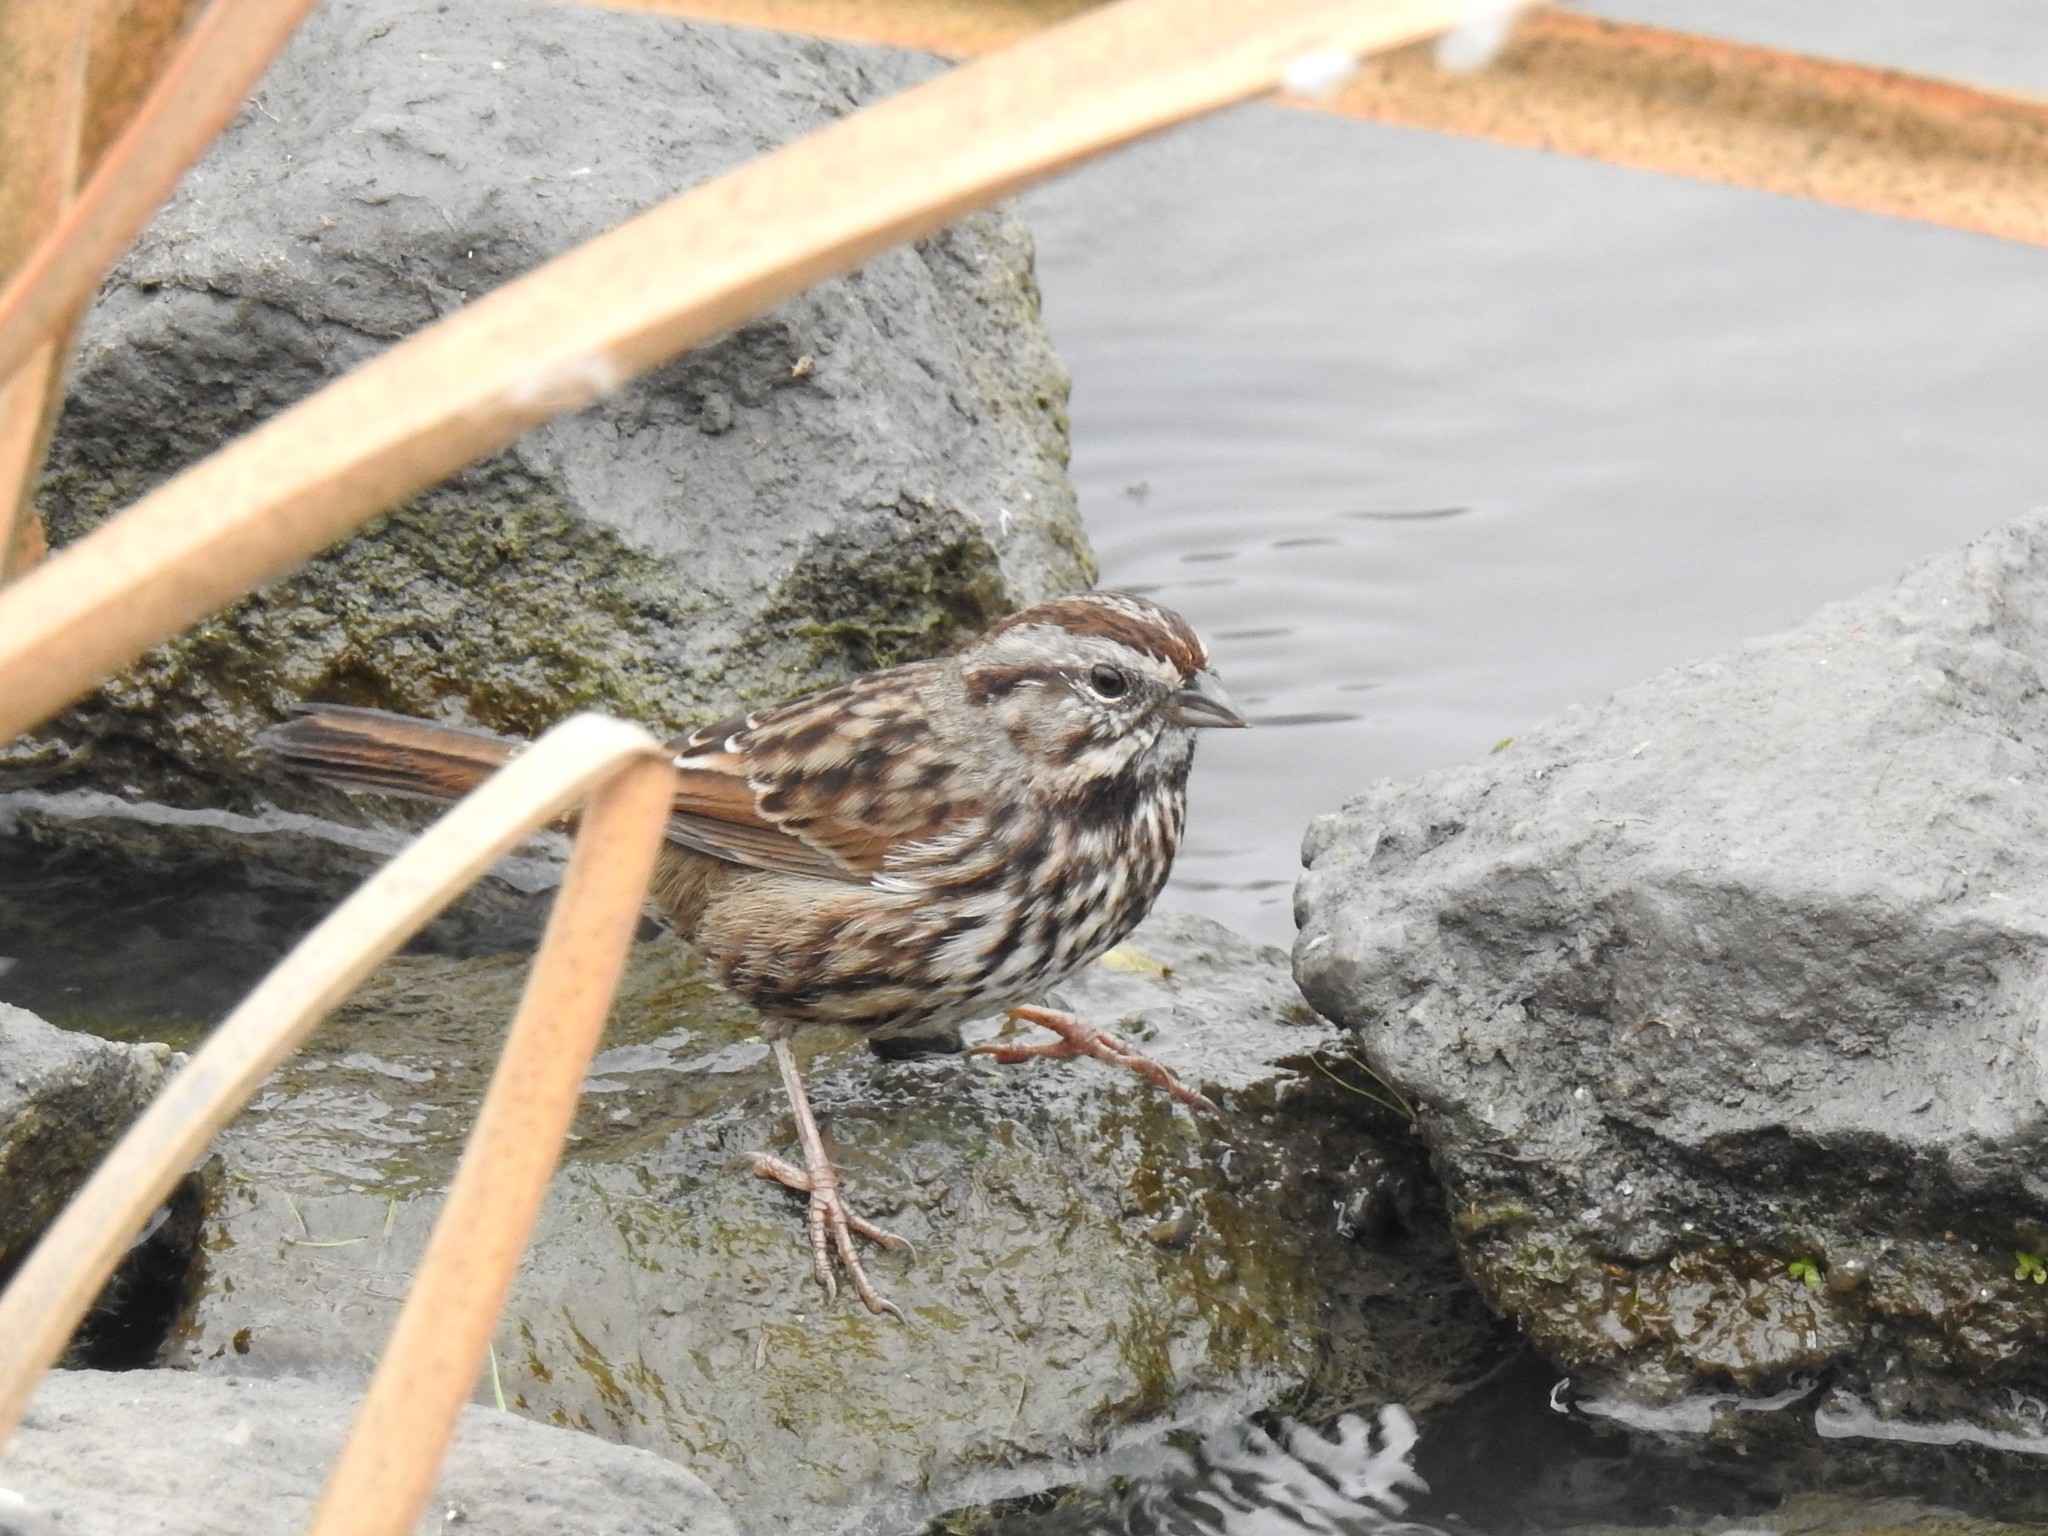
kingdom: Animalia
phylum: Chordata
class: Aves
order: Passeriformes
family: Passerellidae
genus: Melospiza
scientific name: Melospiza melodia
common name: Song sparrow
